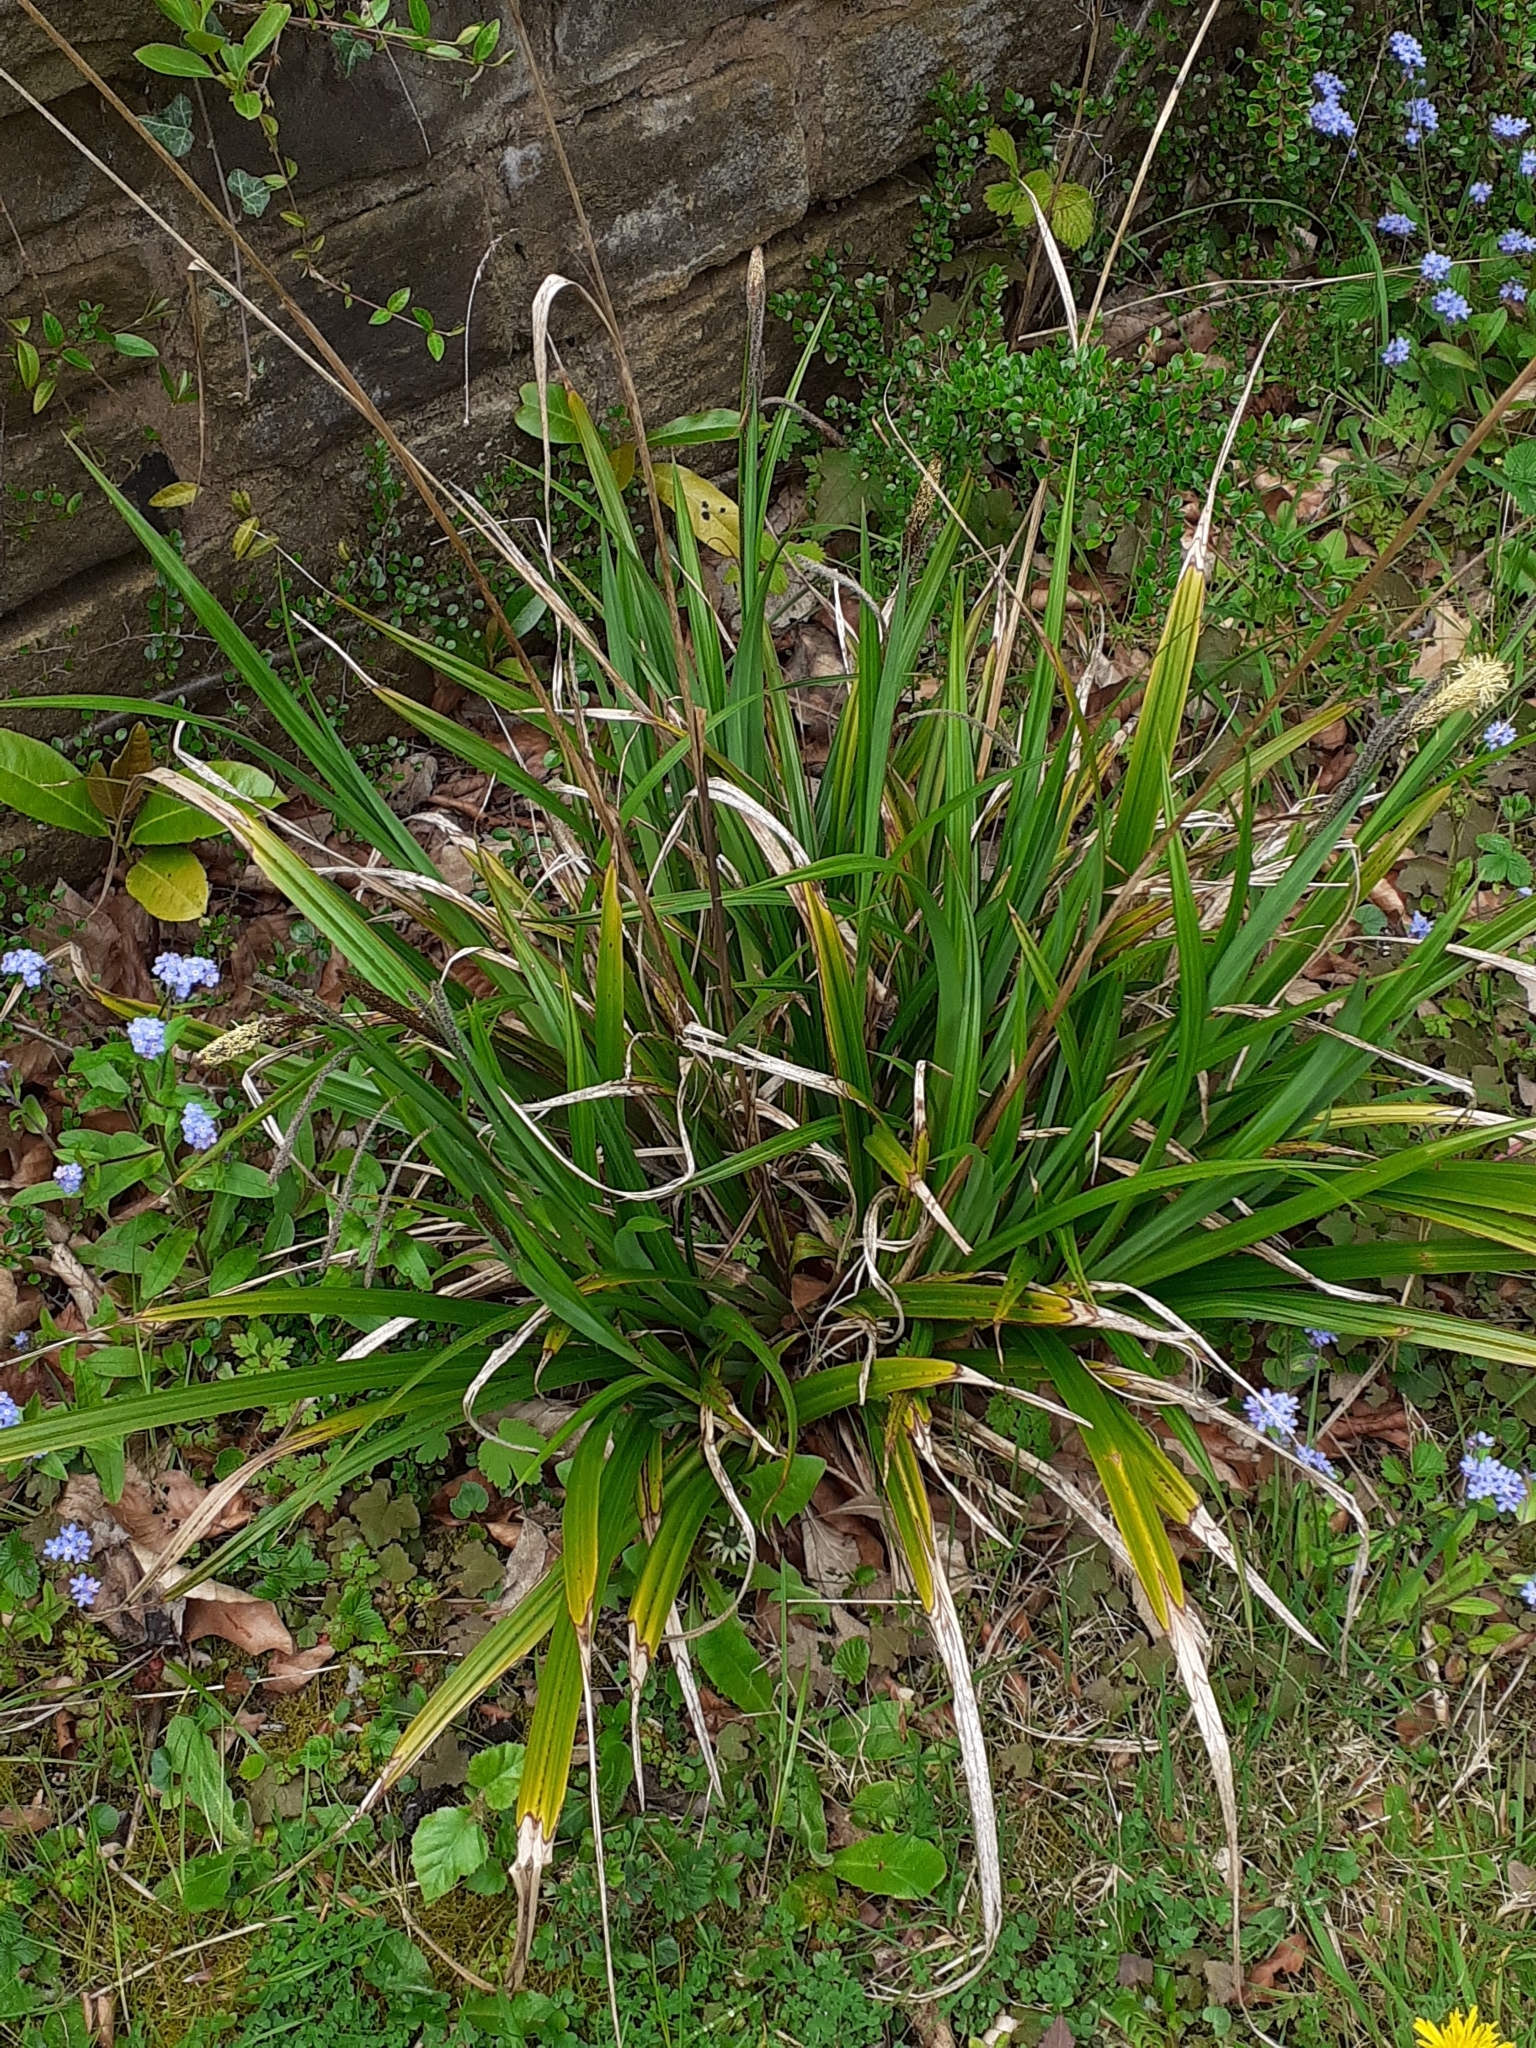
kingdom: Plantae
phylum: Tracheophyta
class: Liliopsida
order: Poales
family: Cyperaceae
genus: Carex
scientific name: Carex pendula
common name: Pendulous sedge
